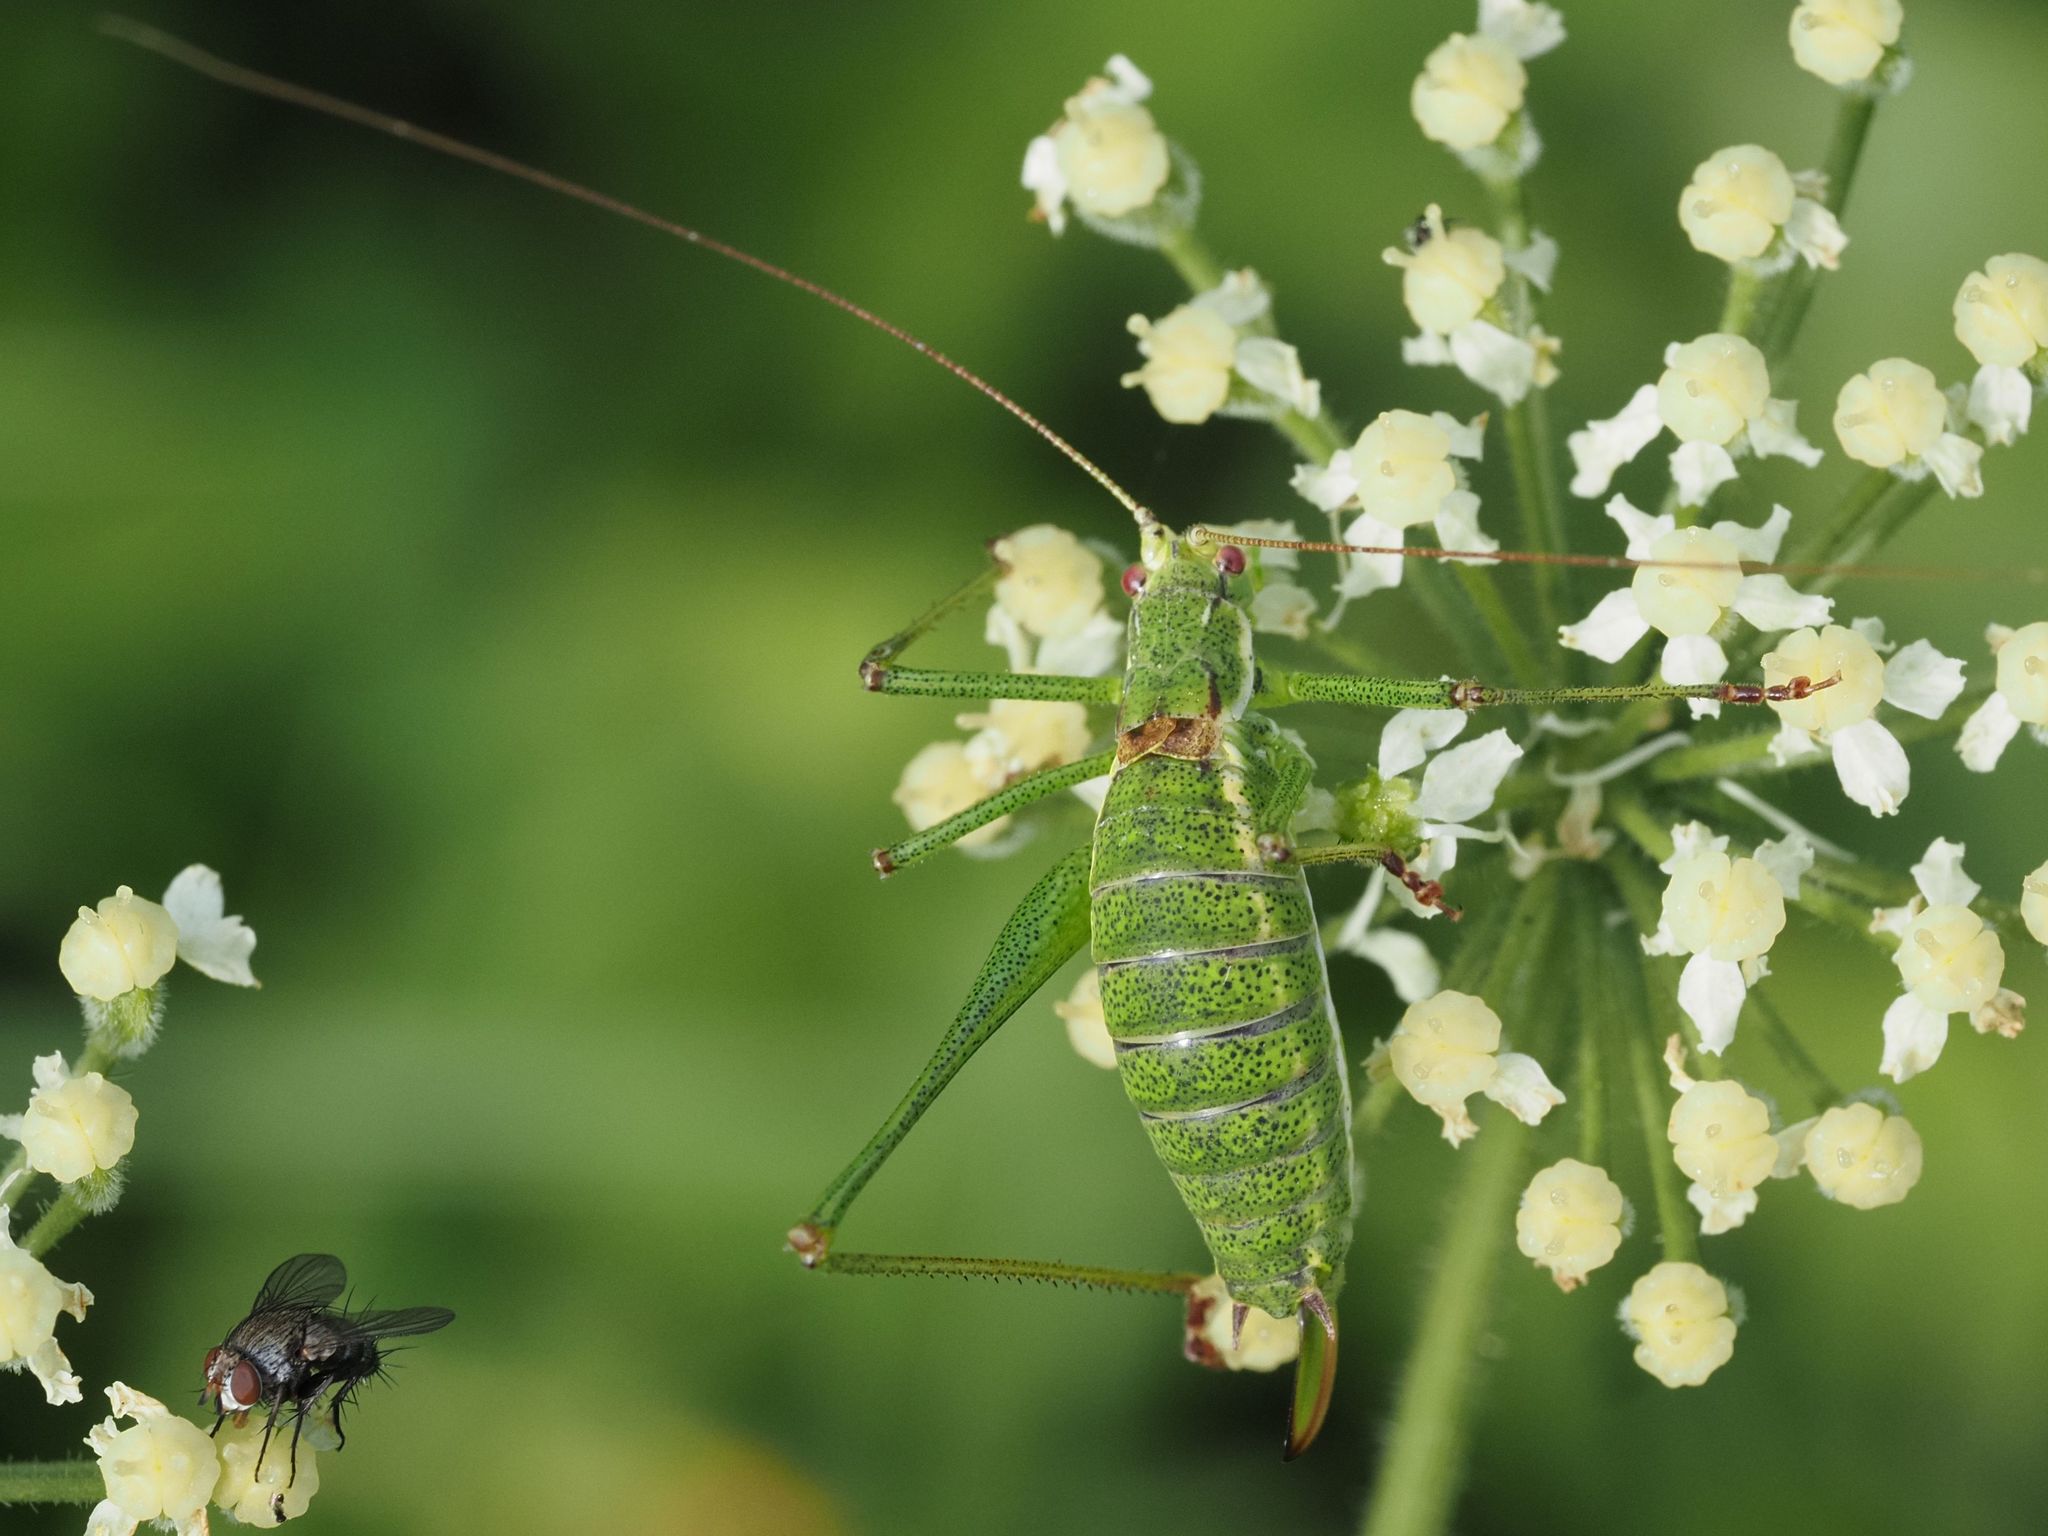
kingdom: Animalia
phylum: Arthropoda
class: Insecta
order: Orthoptera
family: Tettigoniidae
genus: Leptophyes
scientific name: Leptophyes albovittata
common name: Striped bush-cricket
